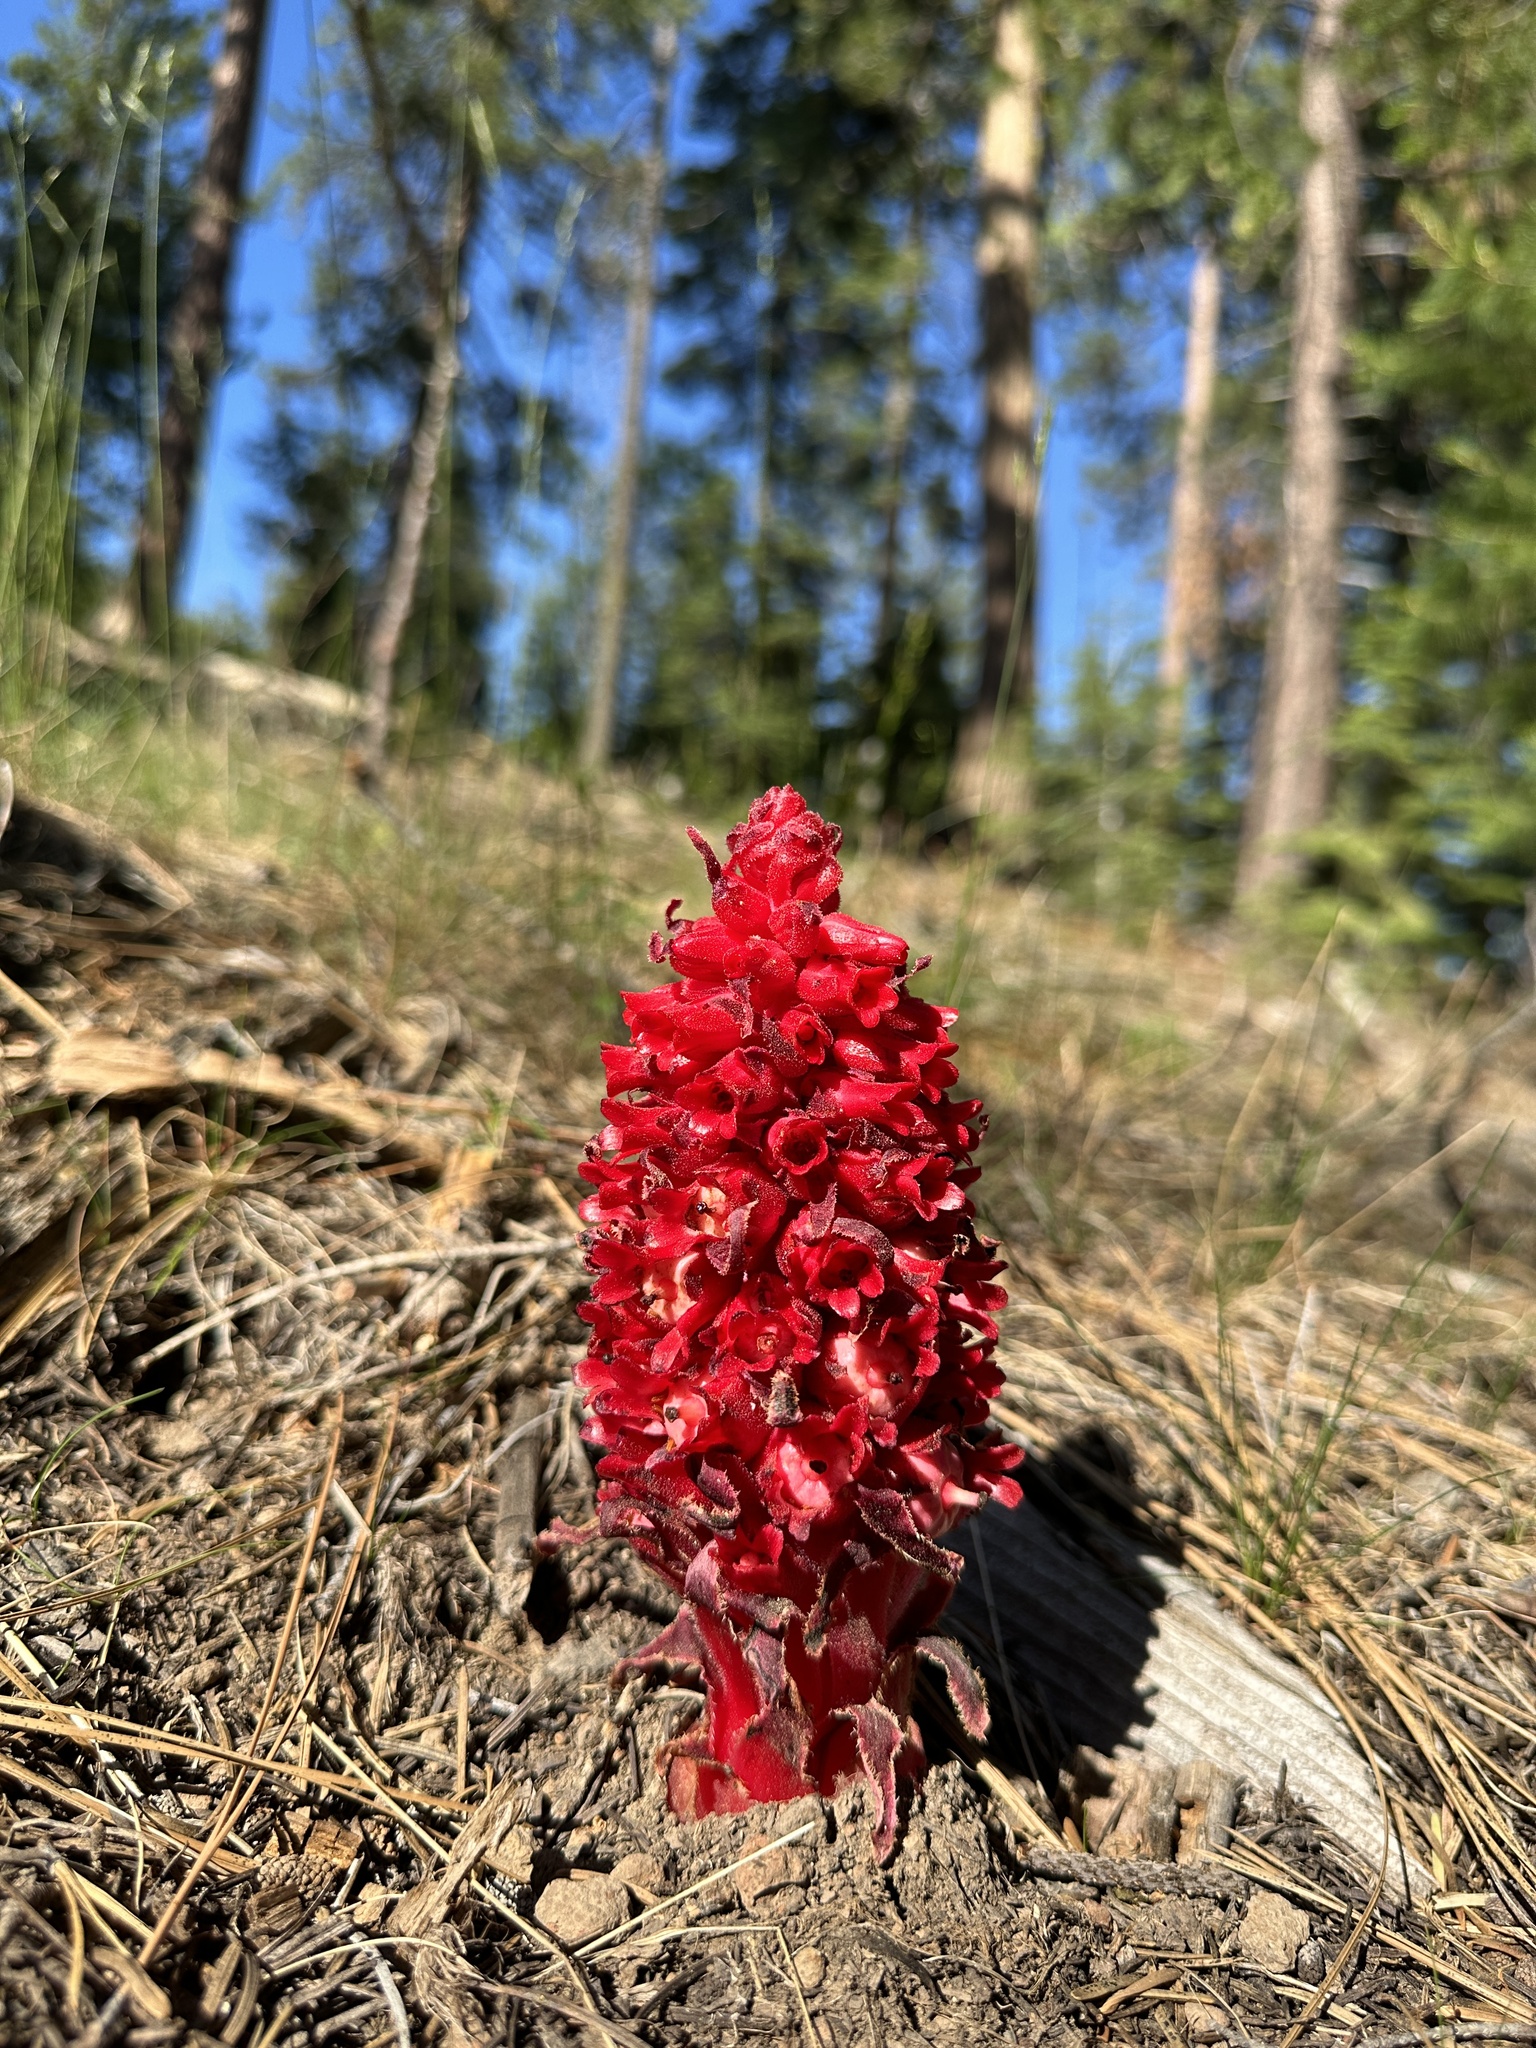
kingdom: Plantae
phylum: Tracheophyta
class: Magnoliopsida
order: Ericales
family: Ericaceae
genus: Sarcodes
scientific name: Sarcodes sanguinea
